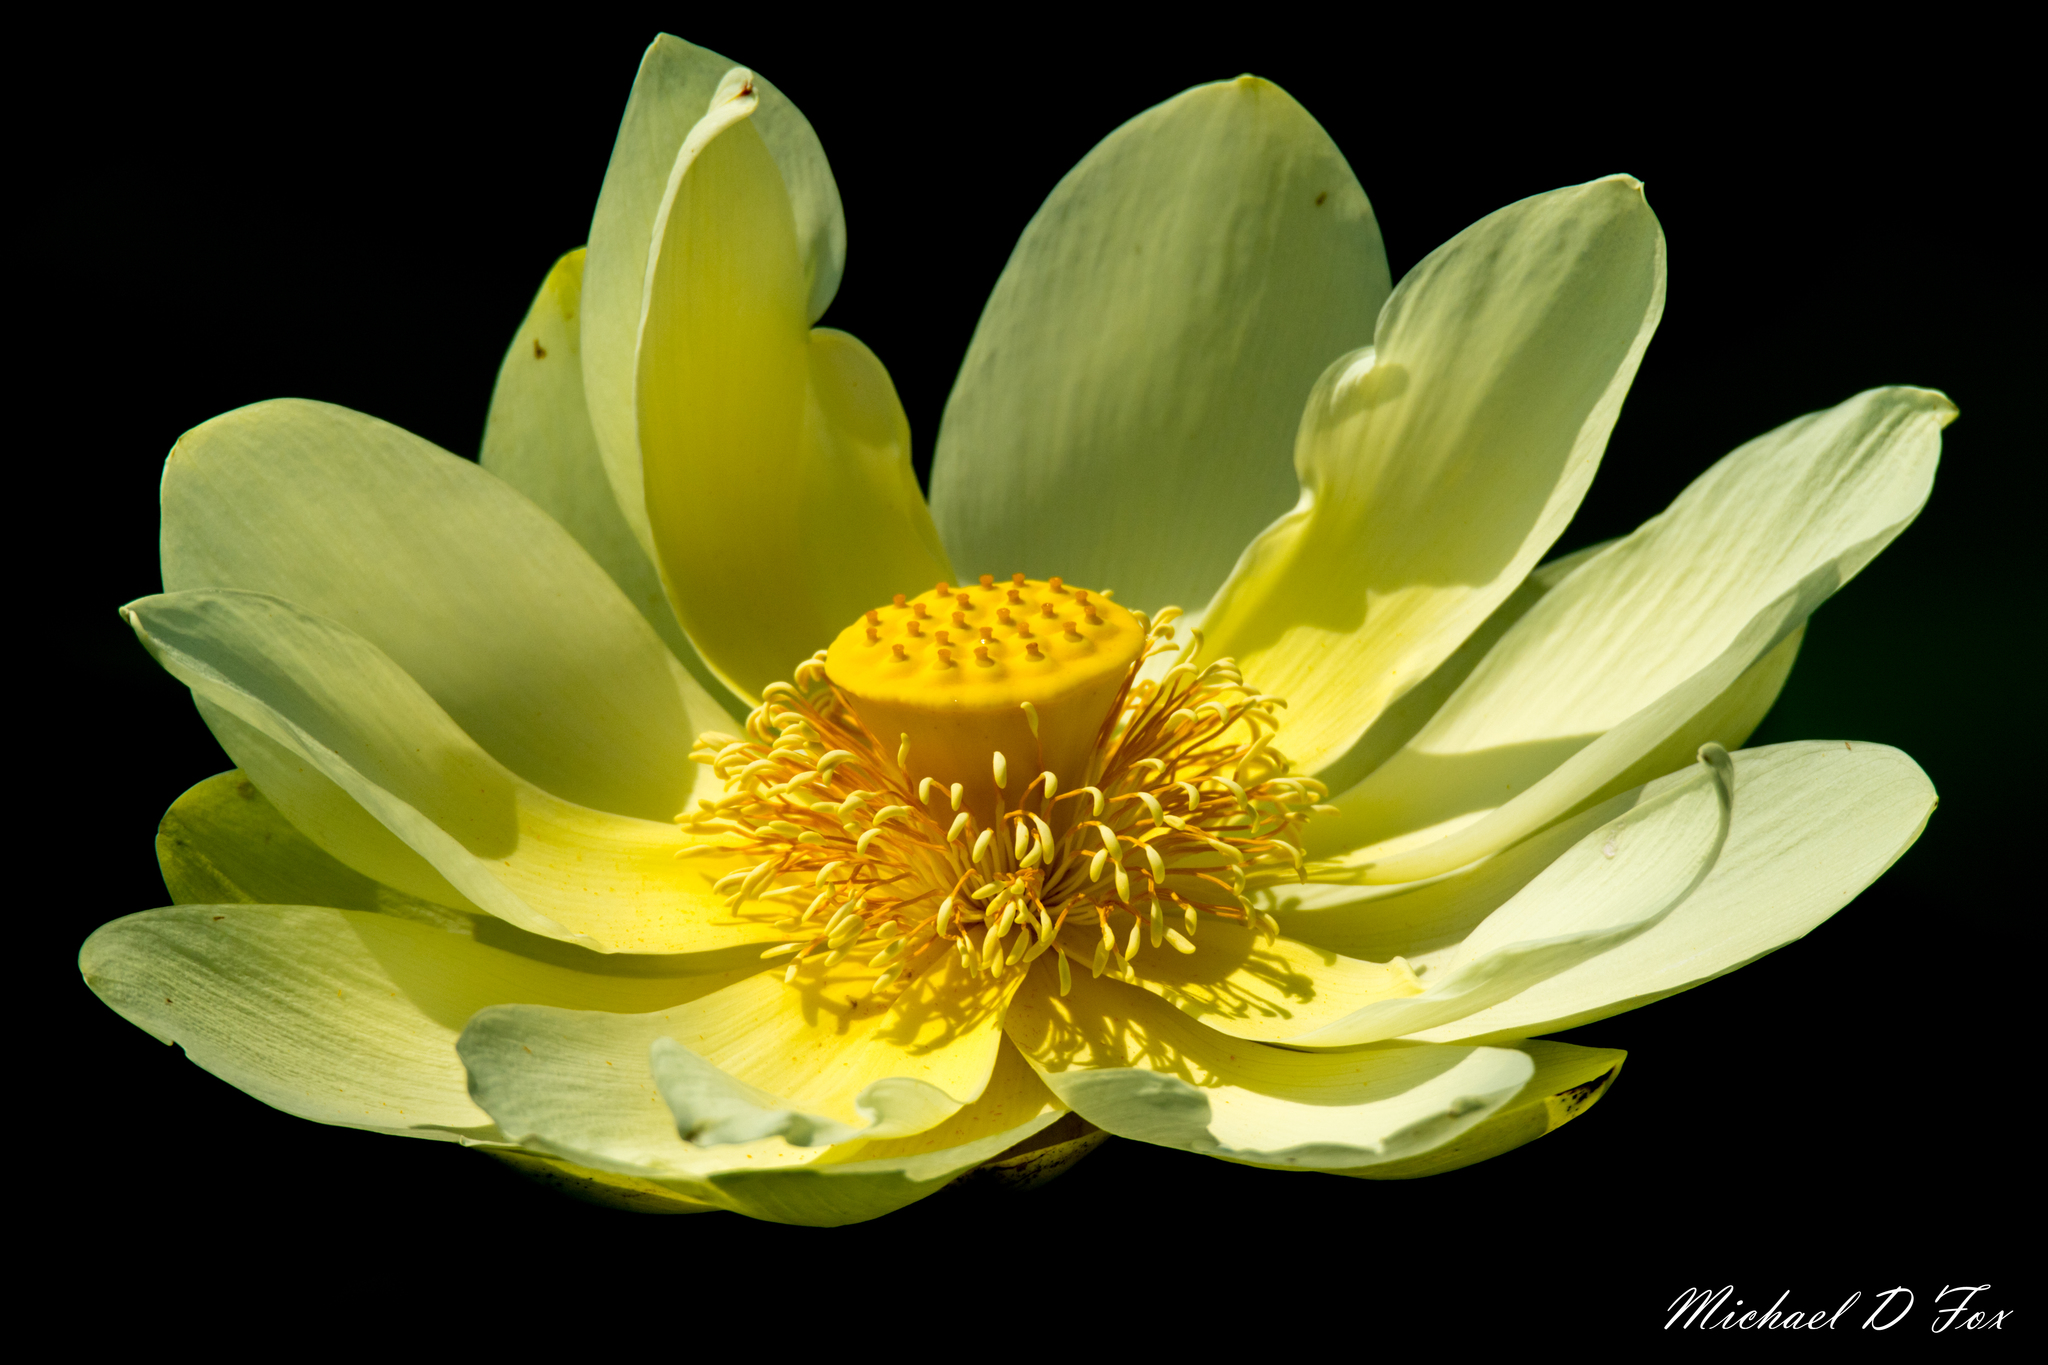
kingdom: Plantae
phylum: Tracheophyta
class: Magnoliopsida
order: Proteales
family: Nelumbonaceae
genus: Nelumbo
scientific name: Nelumbo lutea
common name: American lotus
